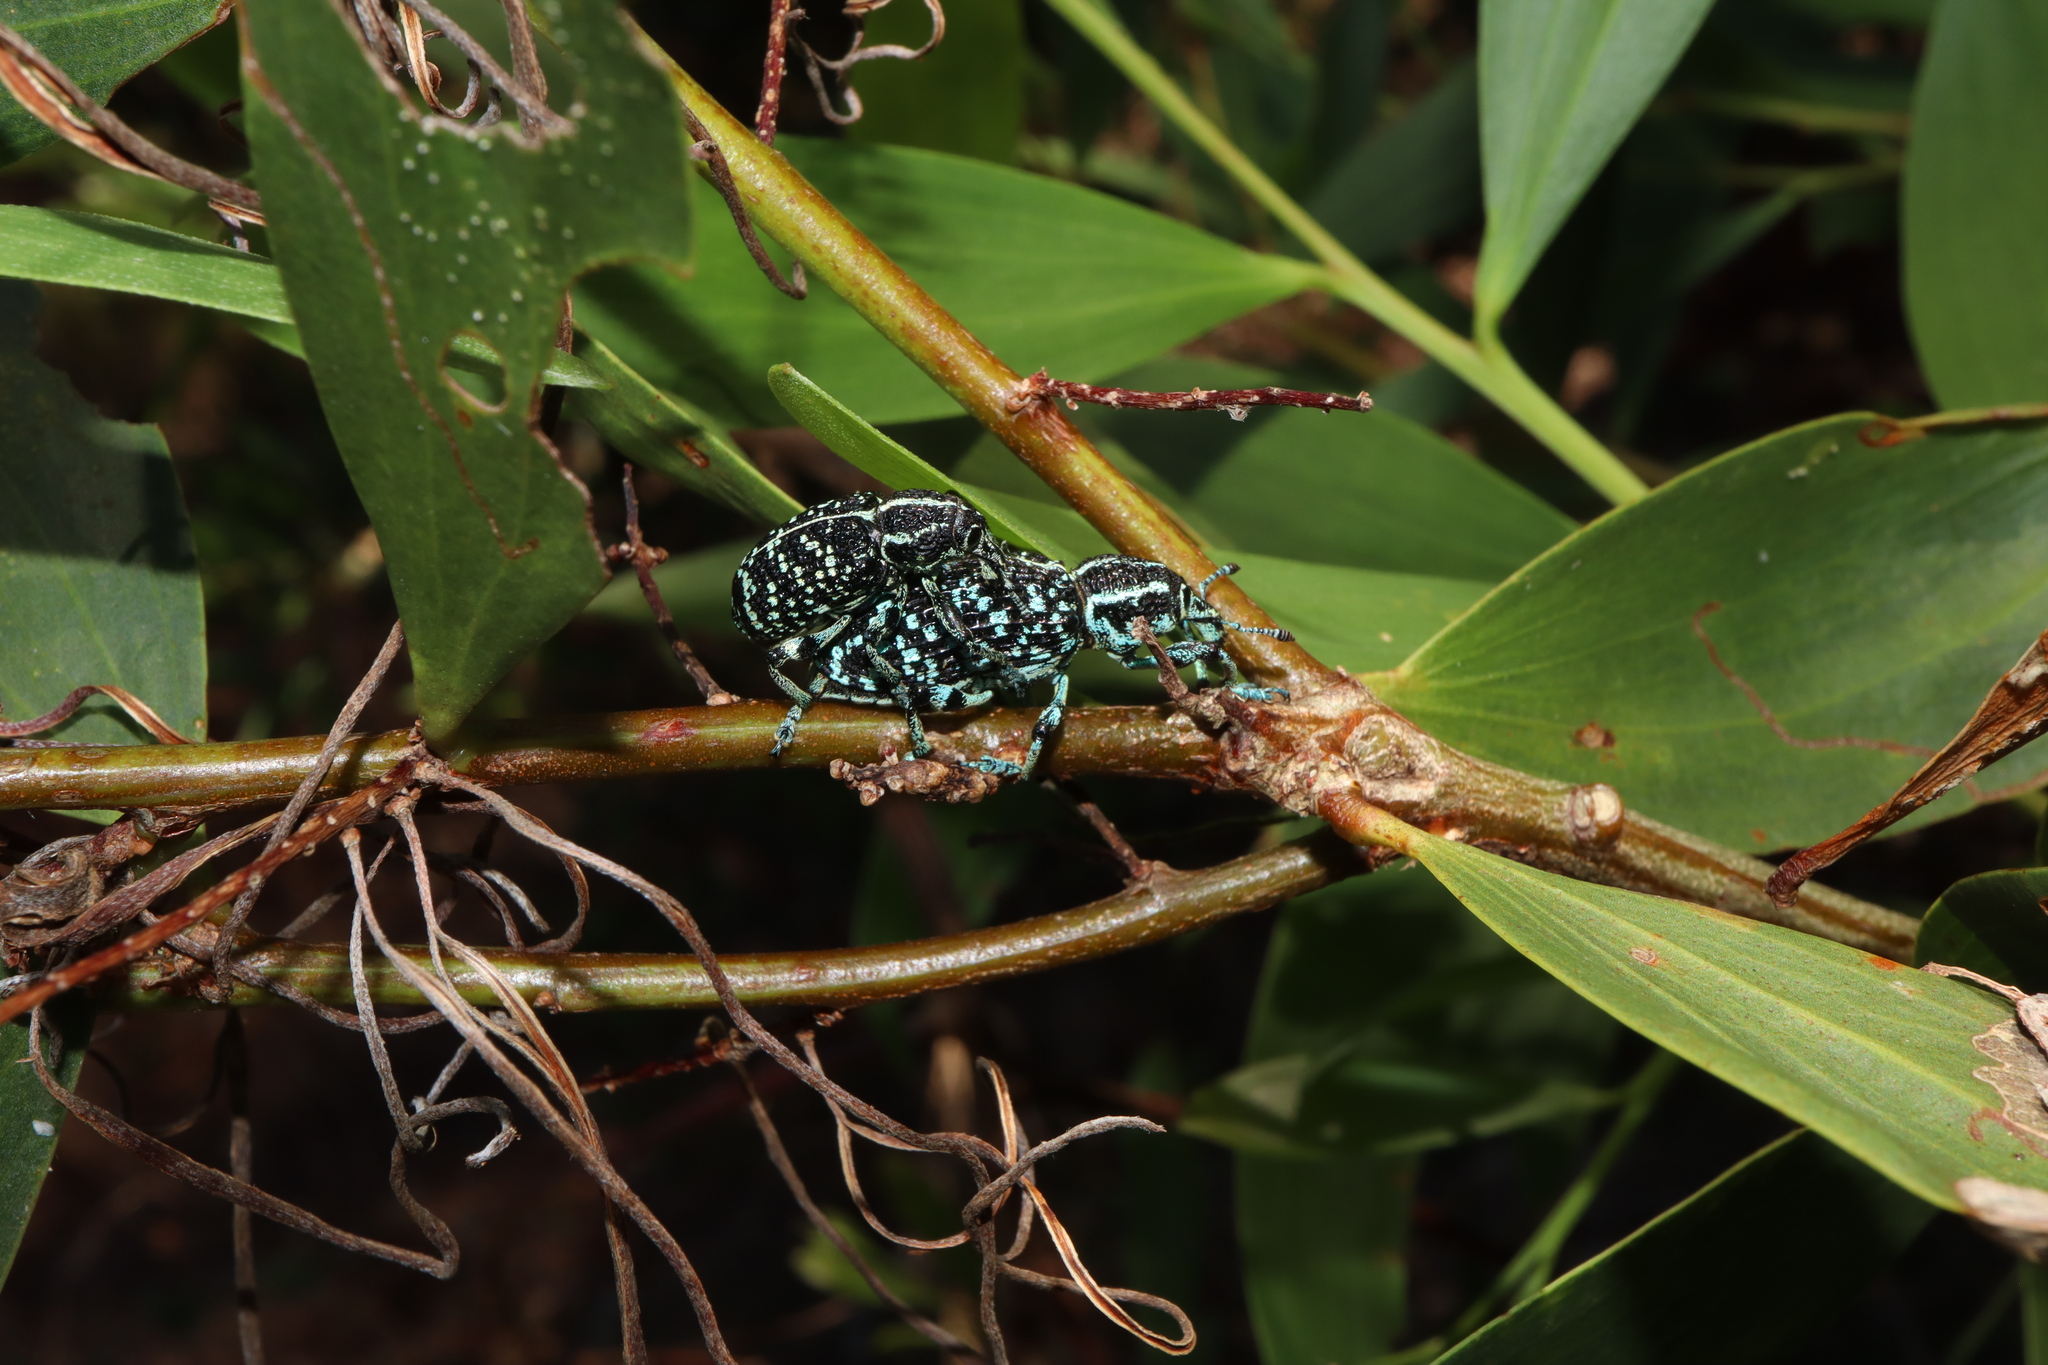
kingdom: Animalia
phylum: Arthropoda
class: Insecta
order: Coleoptera
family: Curculionidae
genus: Chrysolopus
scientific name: Chrysolopus spectabilis
